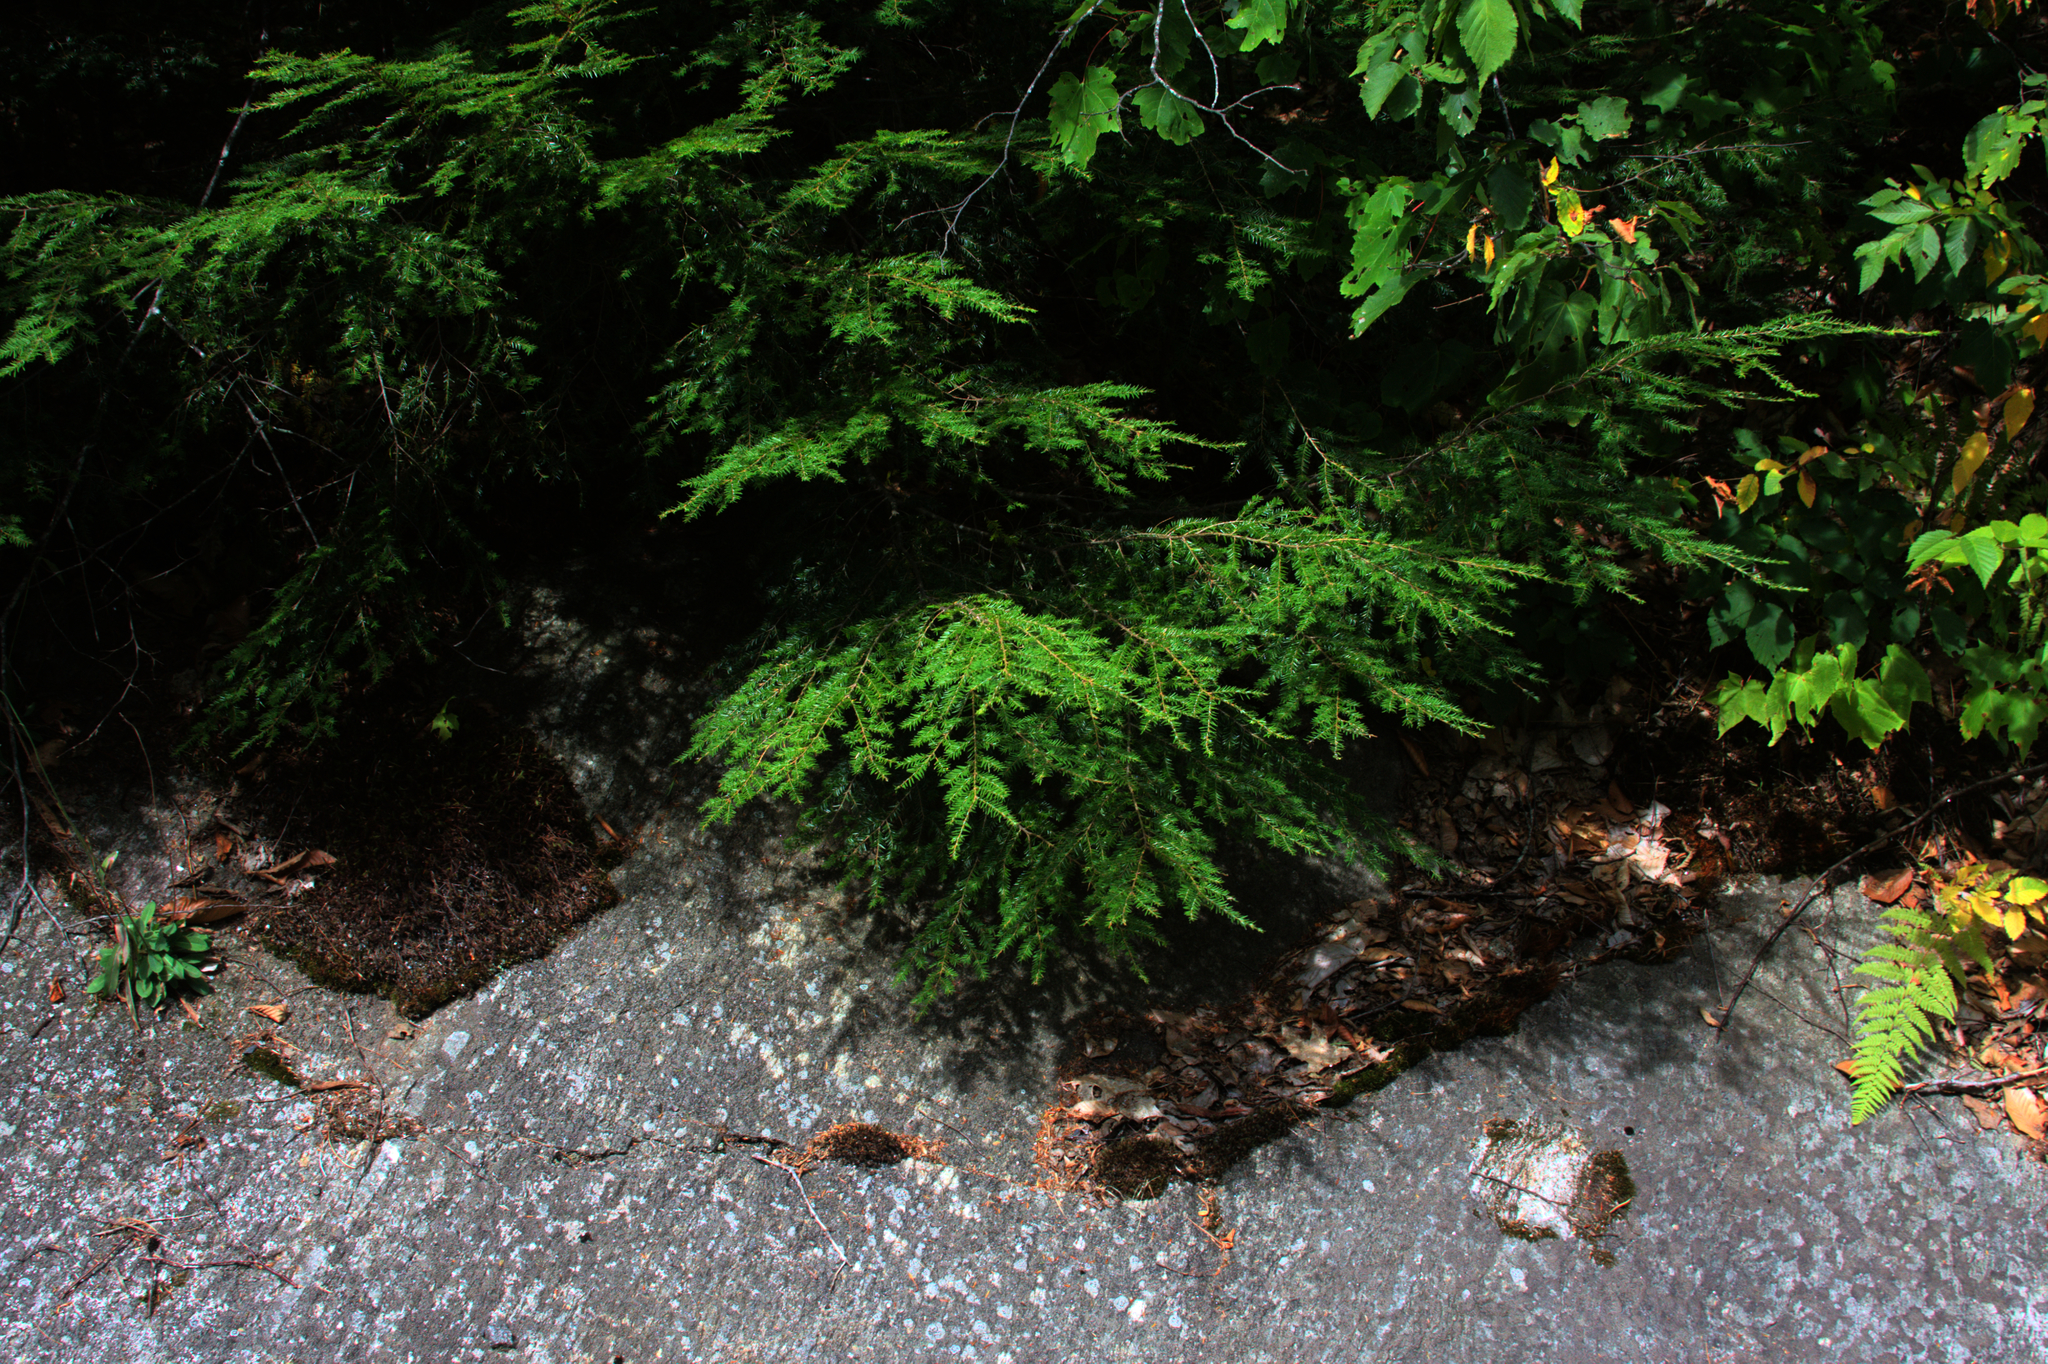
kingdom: Plantae
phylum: Tracheophyta
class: Pinopsida
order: Pinales
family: Pinaceae
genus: Tsuga
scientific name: Tsuga canadensis
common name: Eastern hemlock
